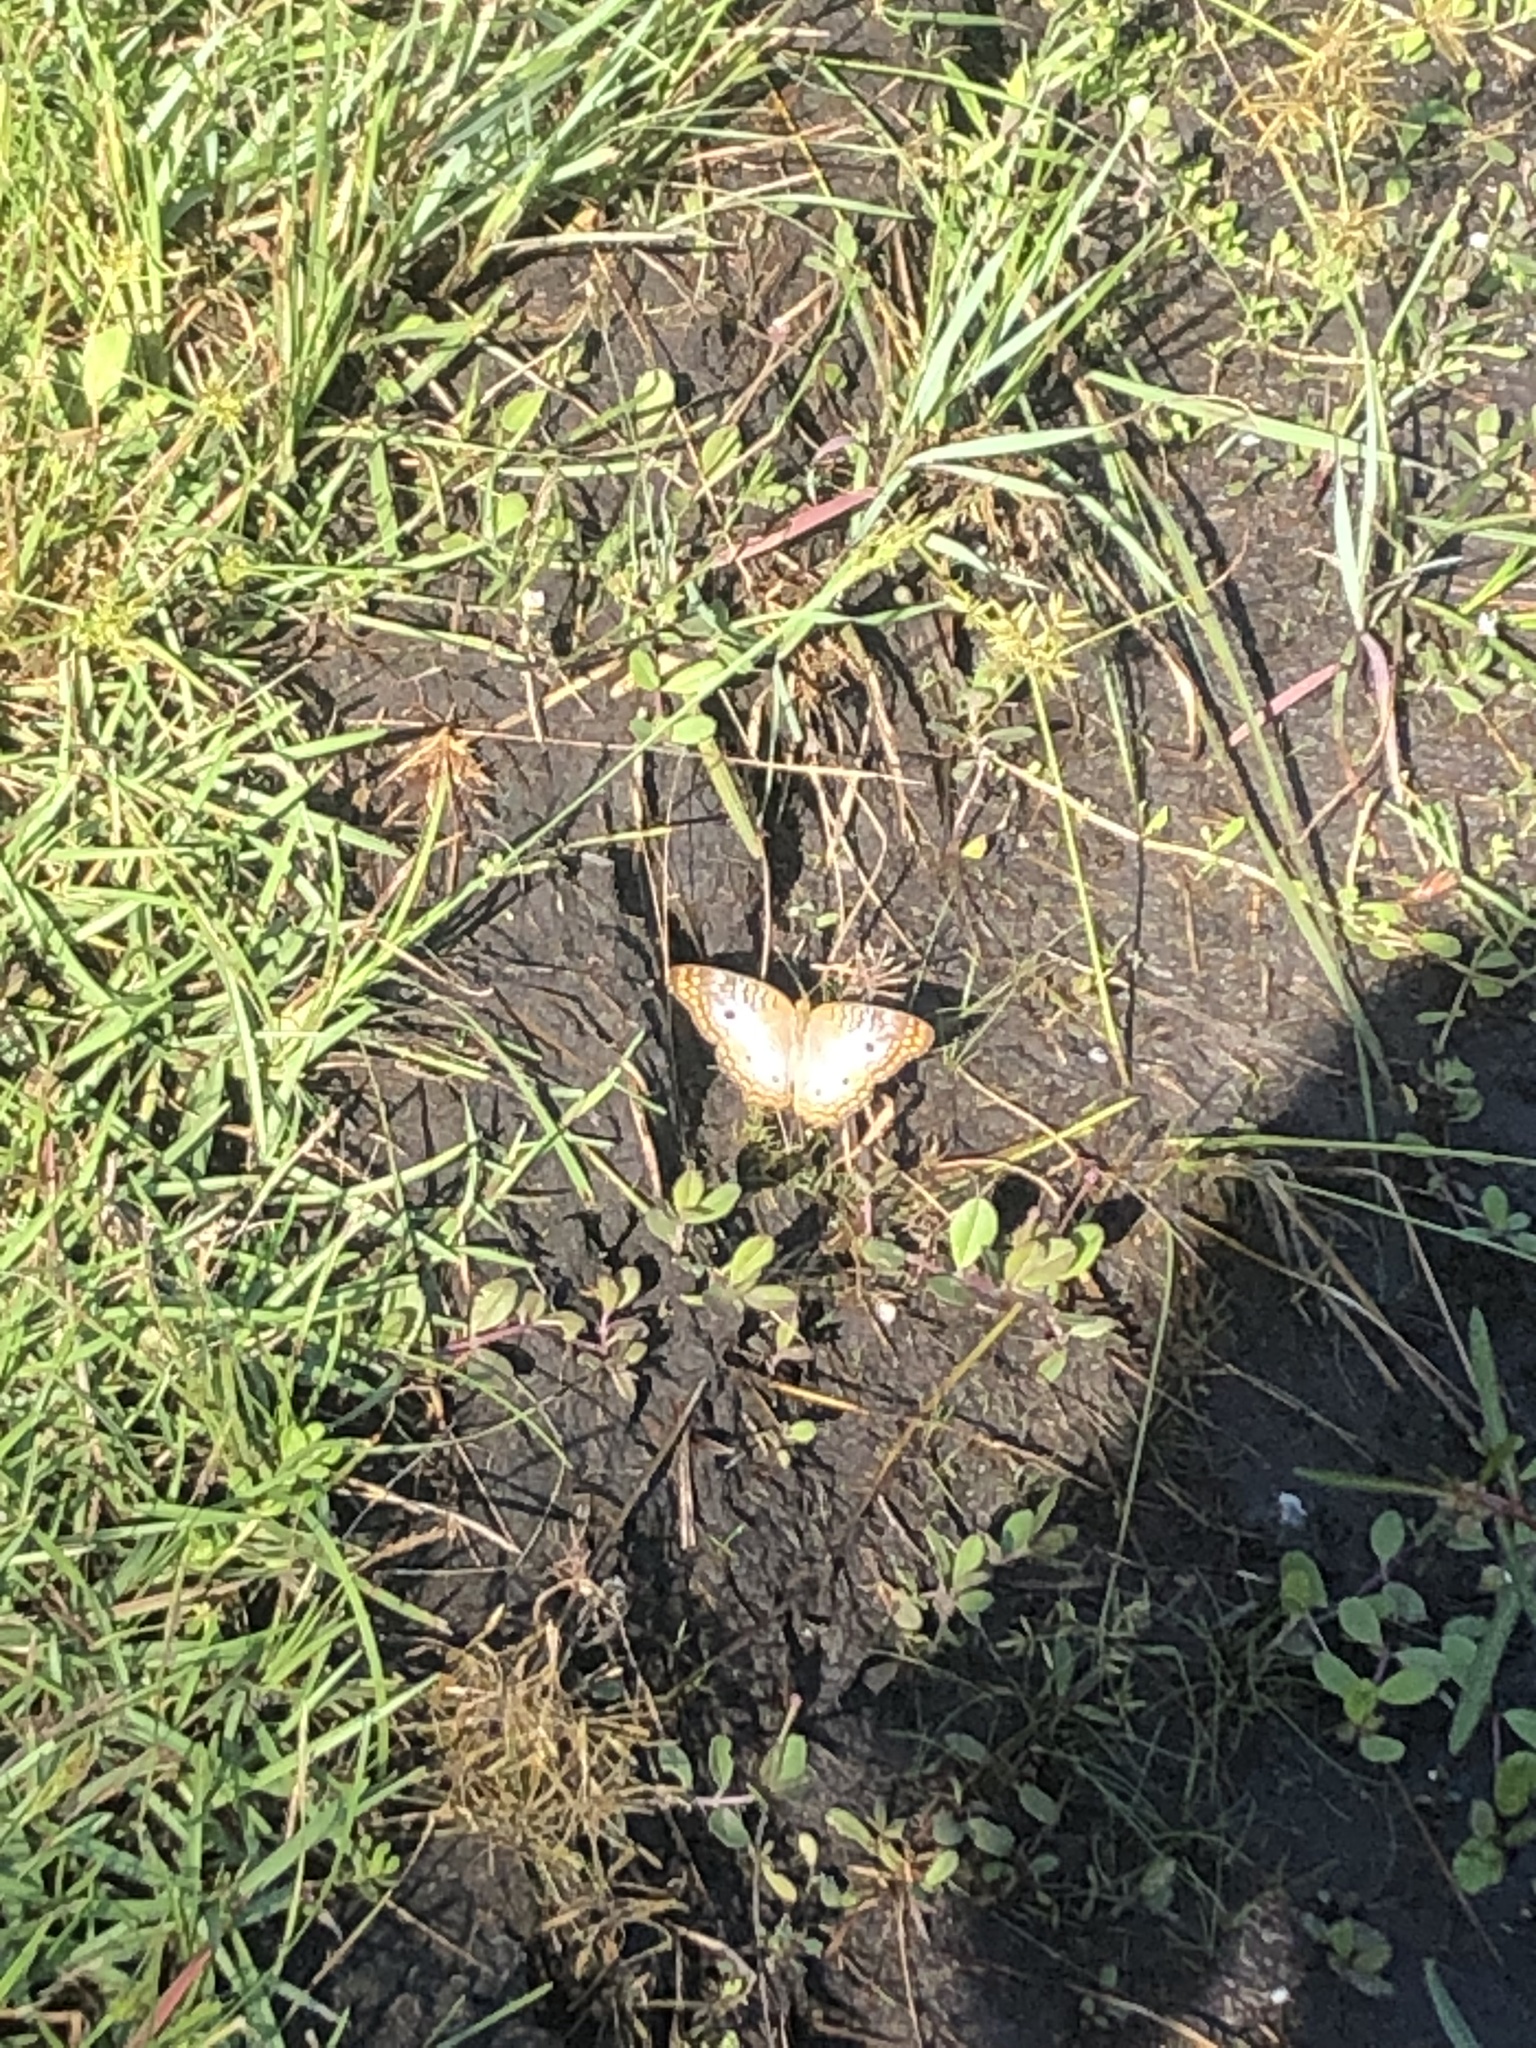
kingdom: Animalia
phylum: Arthropoda
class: Insecta
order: Lepidoptera
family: Nymphalidae
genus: Anartia
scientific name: Anartia jatrophae
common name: White peacock
